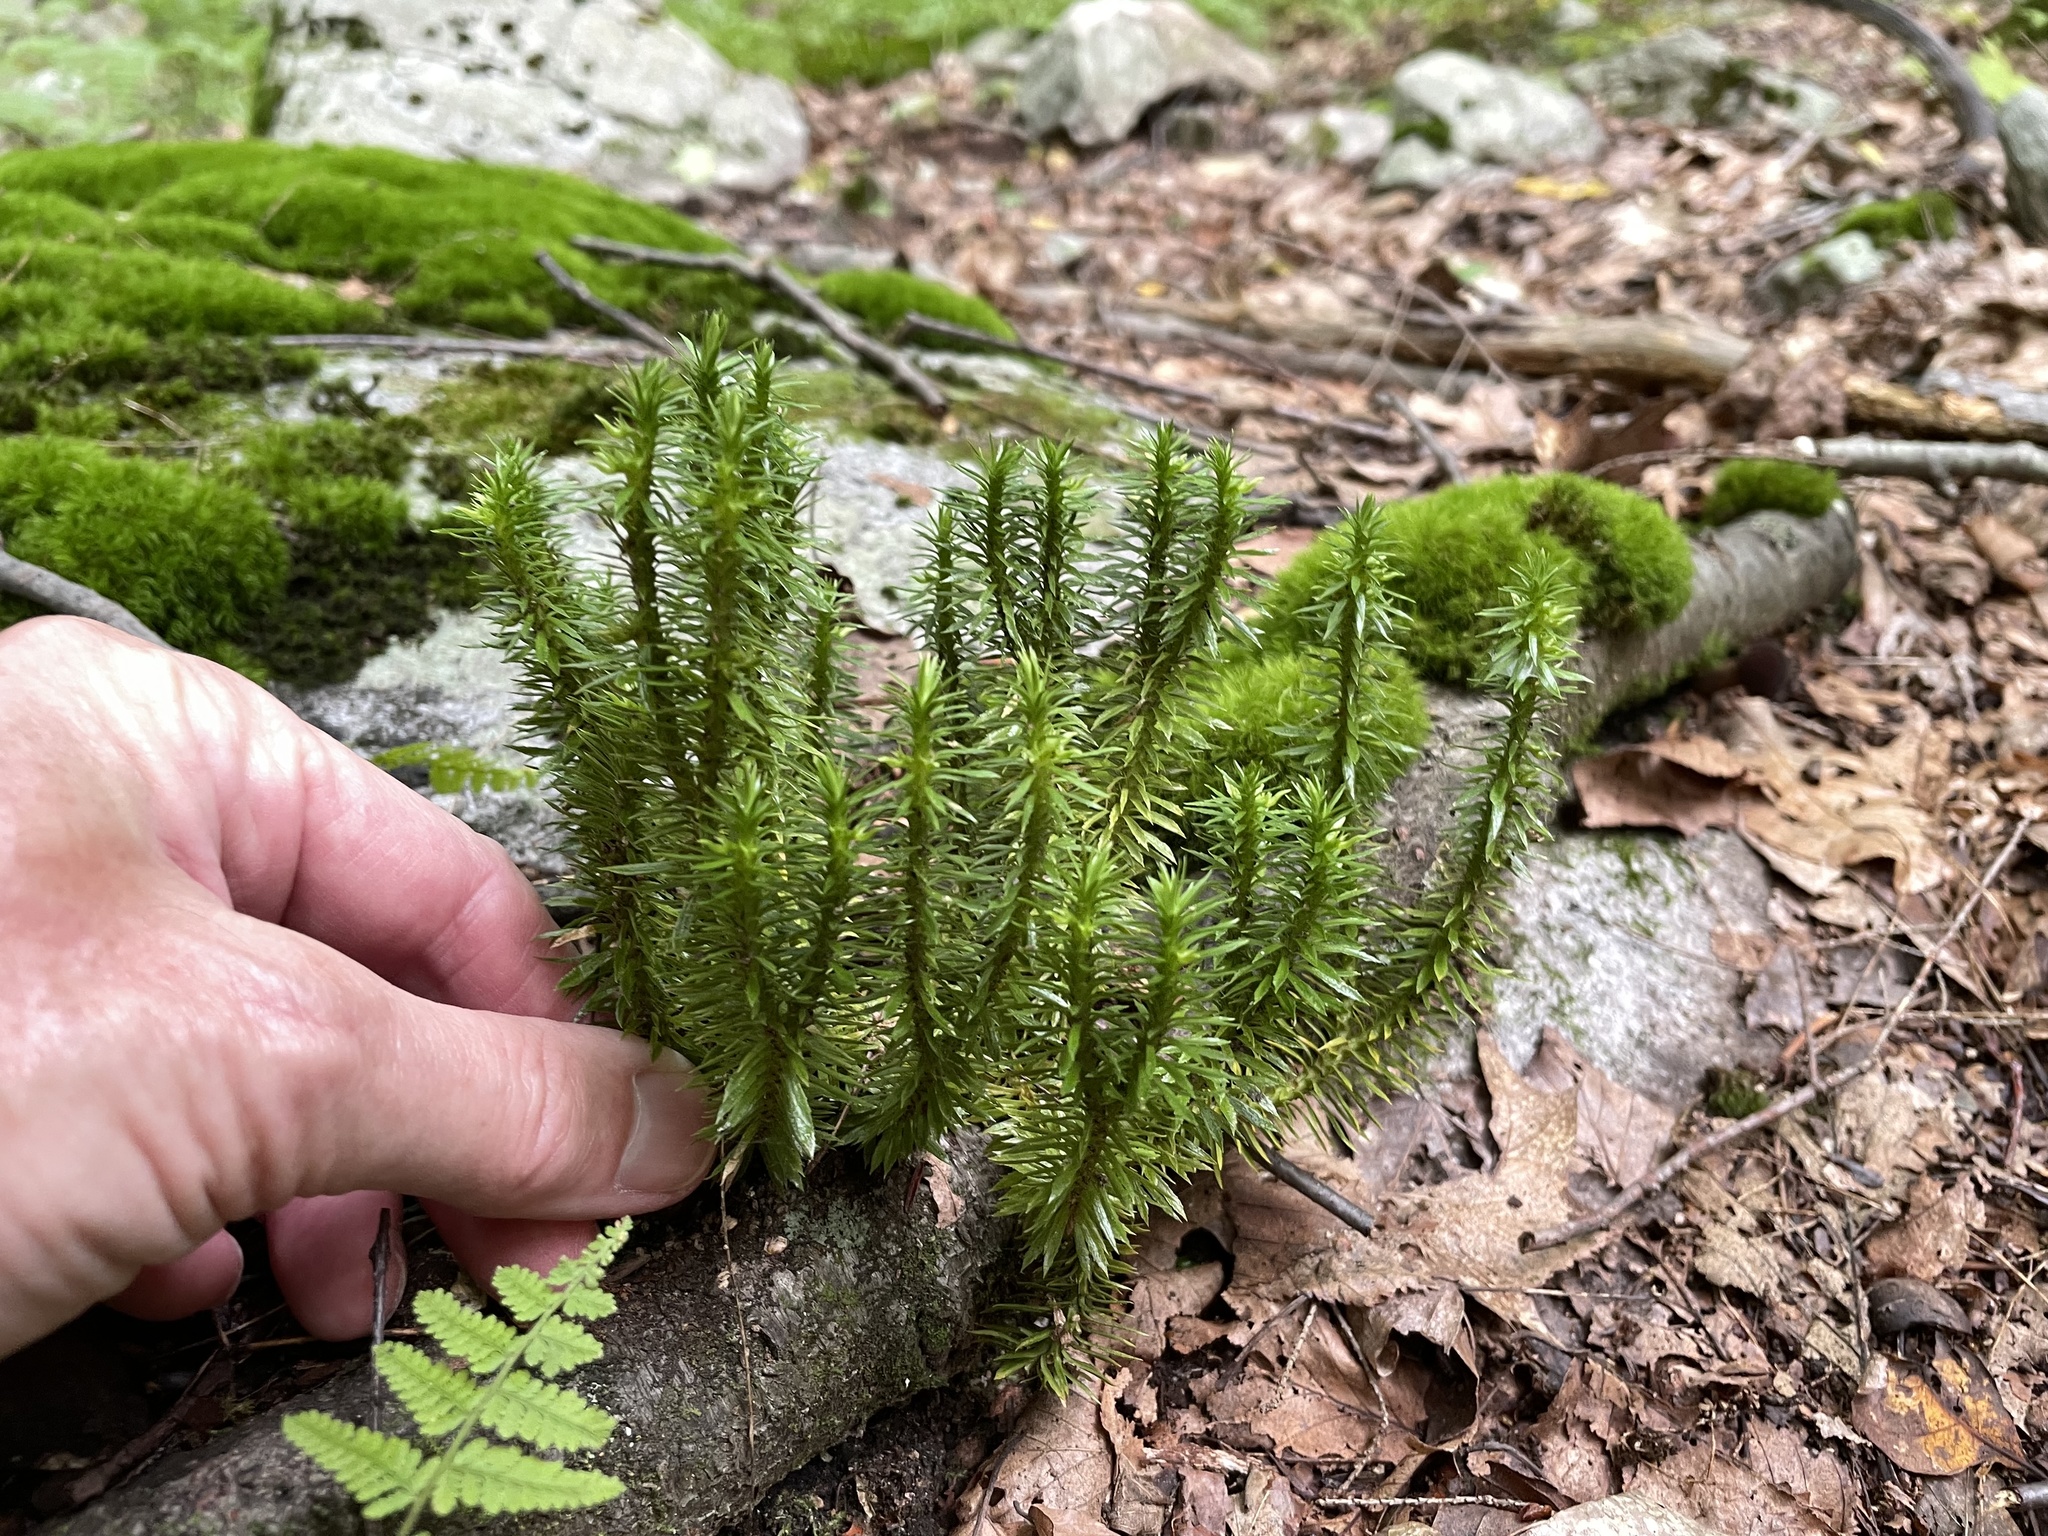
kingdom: Plantae
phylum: Tracheophyta
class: Lycopodiopsida
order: Lycopodiales
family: Lycopodiaceae
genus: Huperzia
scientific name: Huperzia lucidula
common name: Shining clubmoss
